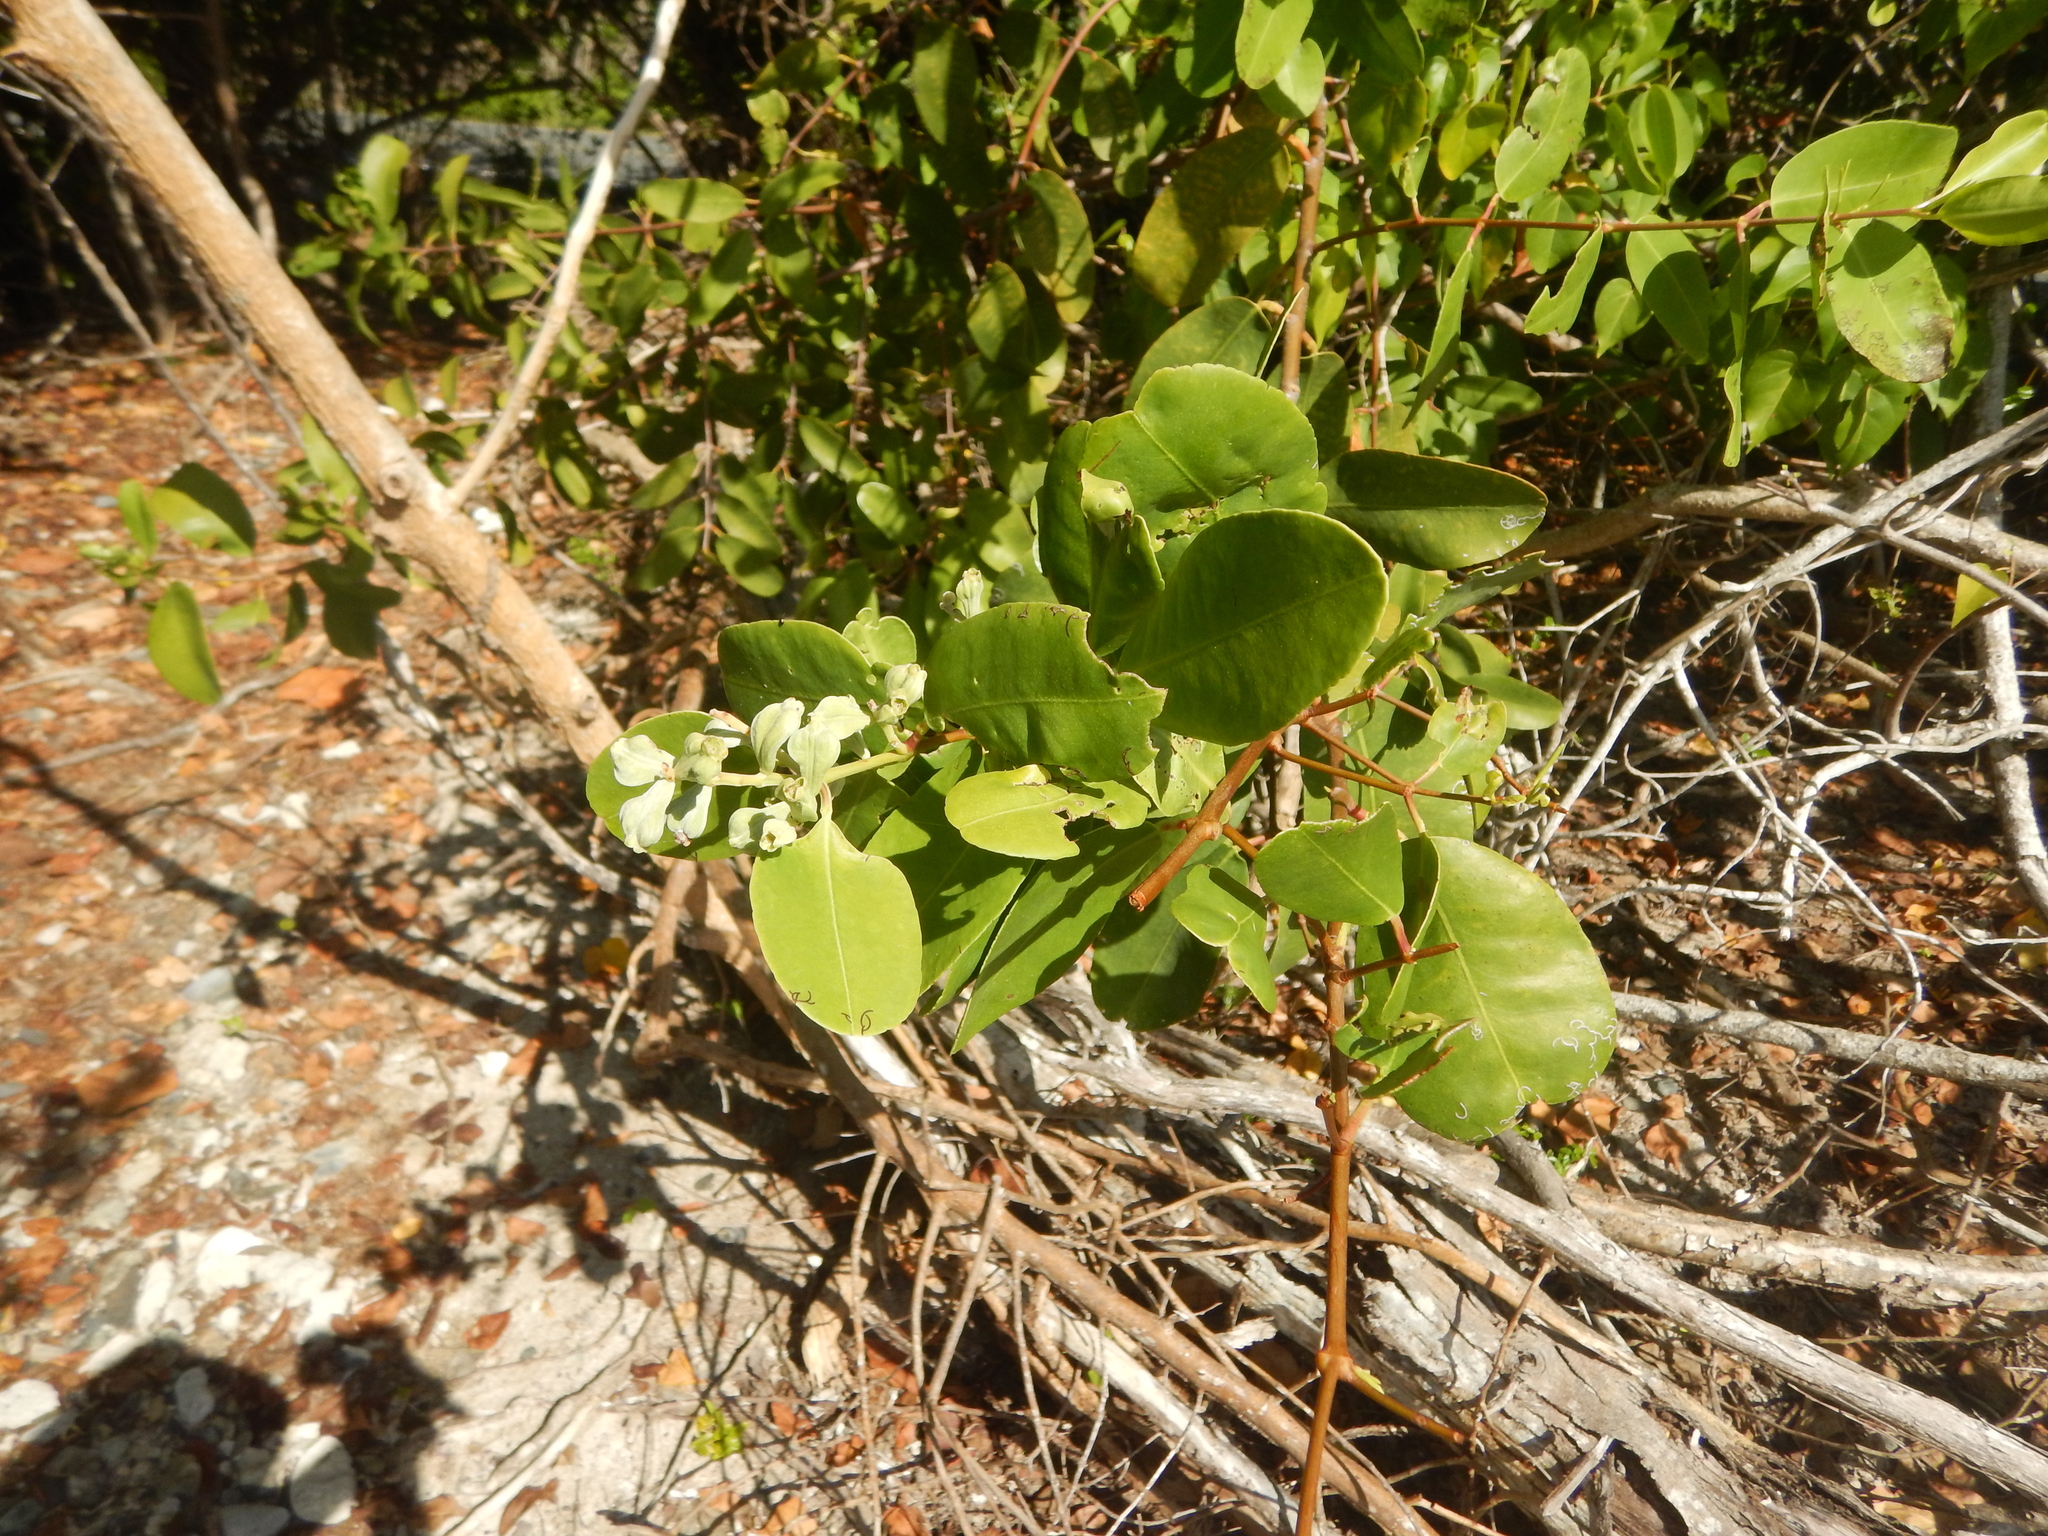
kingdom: Plantae
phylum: Tracheophyta
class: Magnoliopsida
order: Myrtales
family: Combretaceae
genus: Laguncularia
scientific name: Laguncularia racemosa
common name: White mangrove
